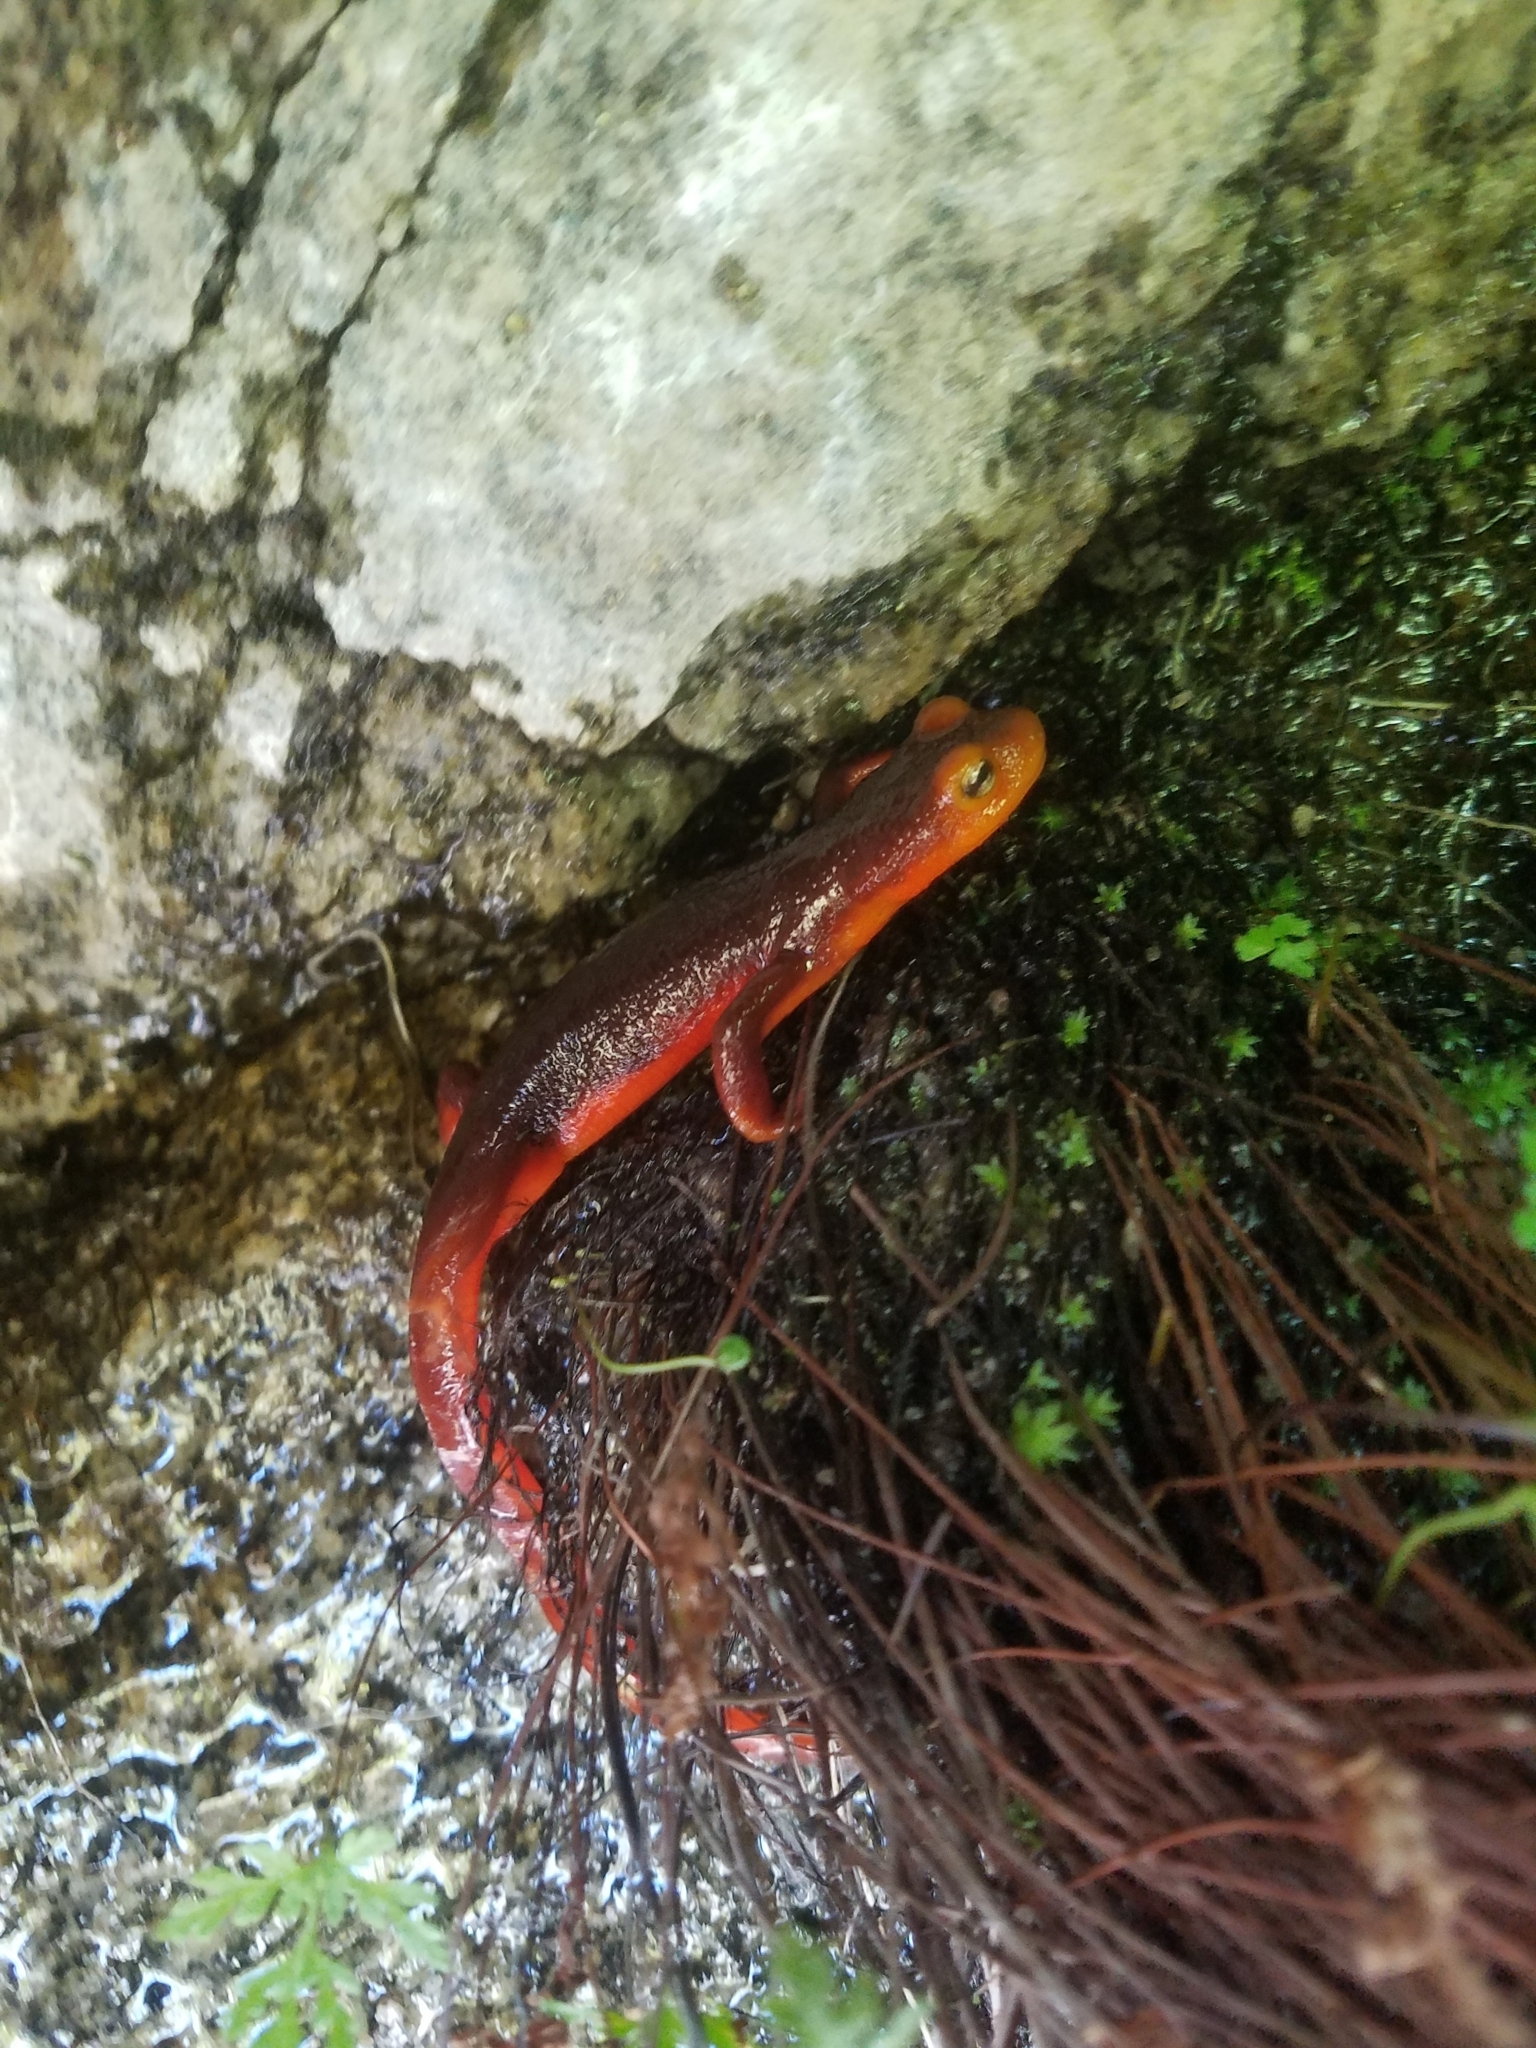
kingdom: Animalia
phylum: Chordata
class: Amphibia
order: Caudata
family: Salamandridae
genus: Taricha
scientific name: Taricha sierrae
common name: Sierra newt
